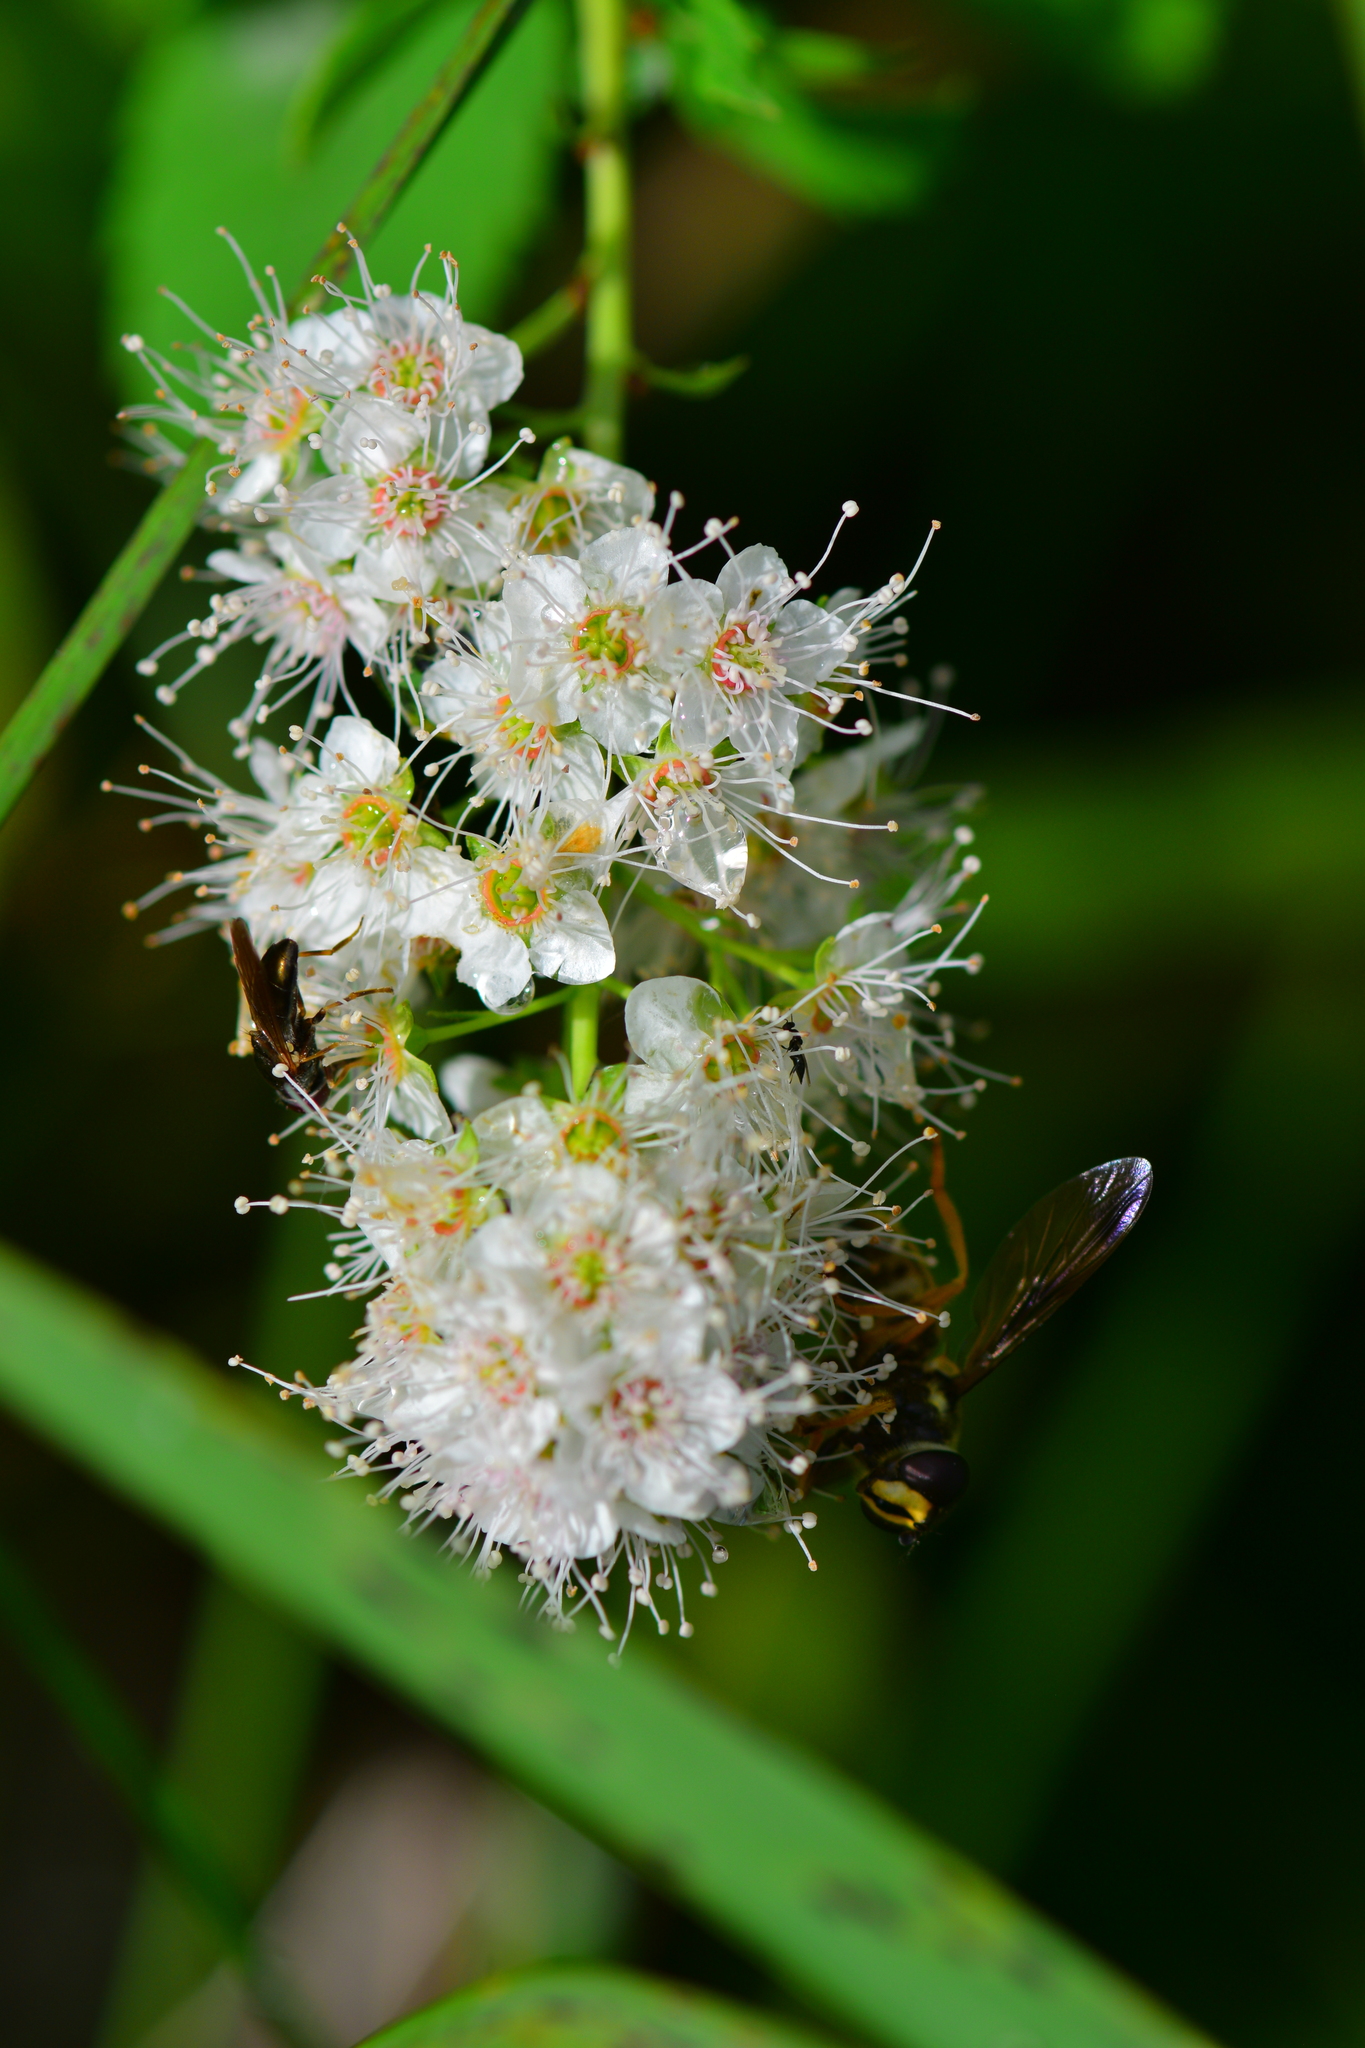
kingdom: Plantae
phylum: Tracheophyta
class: Magnoliopsida
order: Rosales
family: Rosaceae
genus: Spiraea
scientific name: Spiraea alba
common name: Pale bridewort
